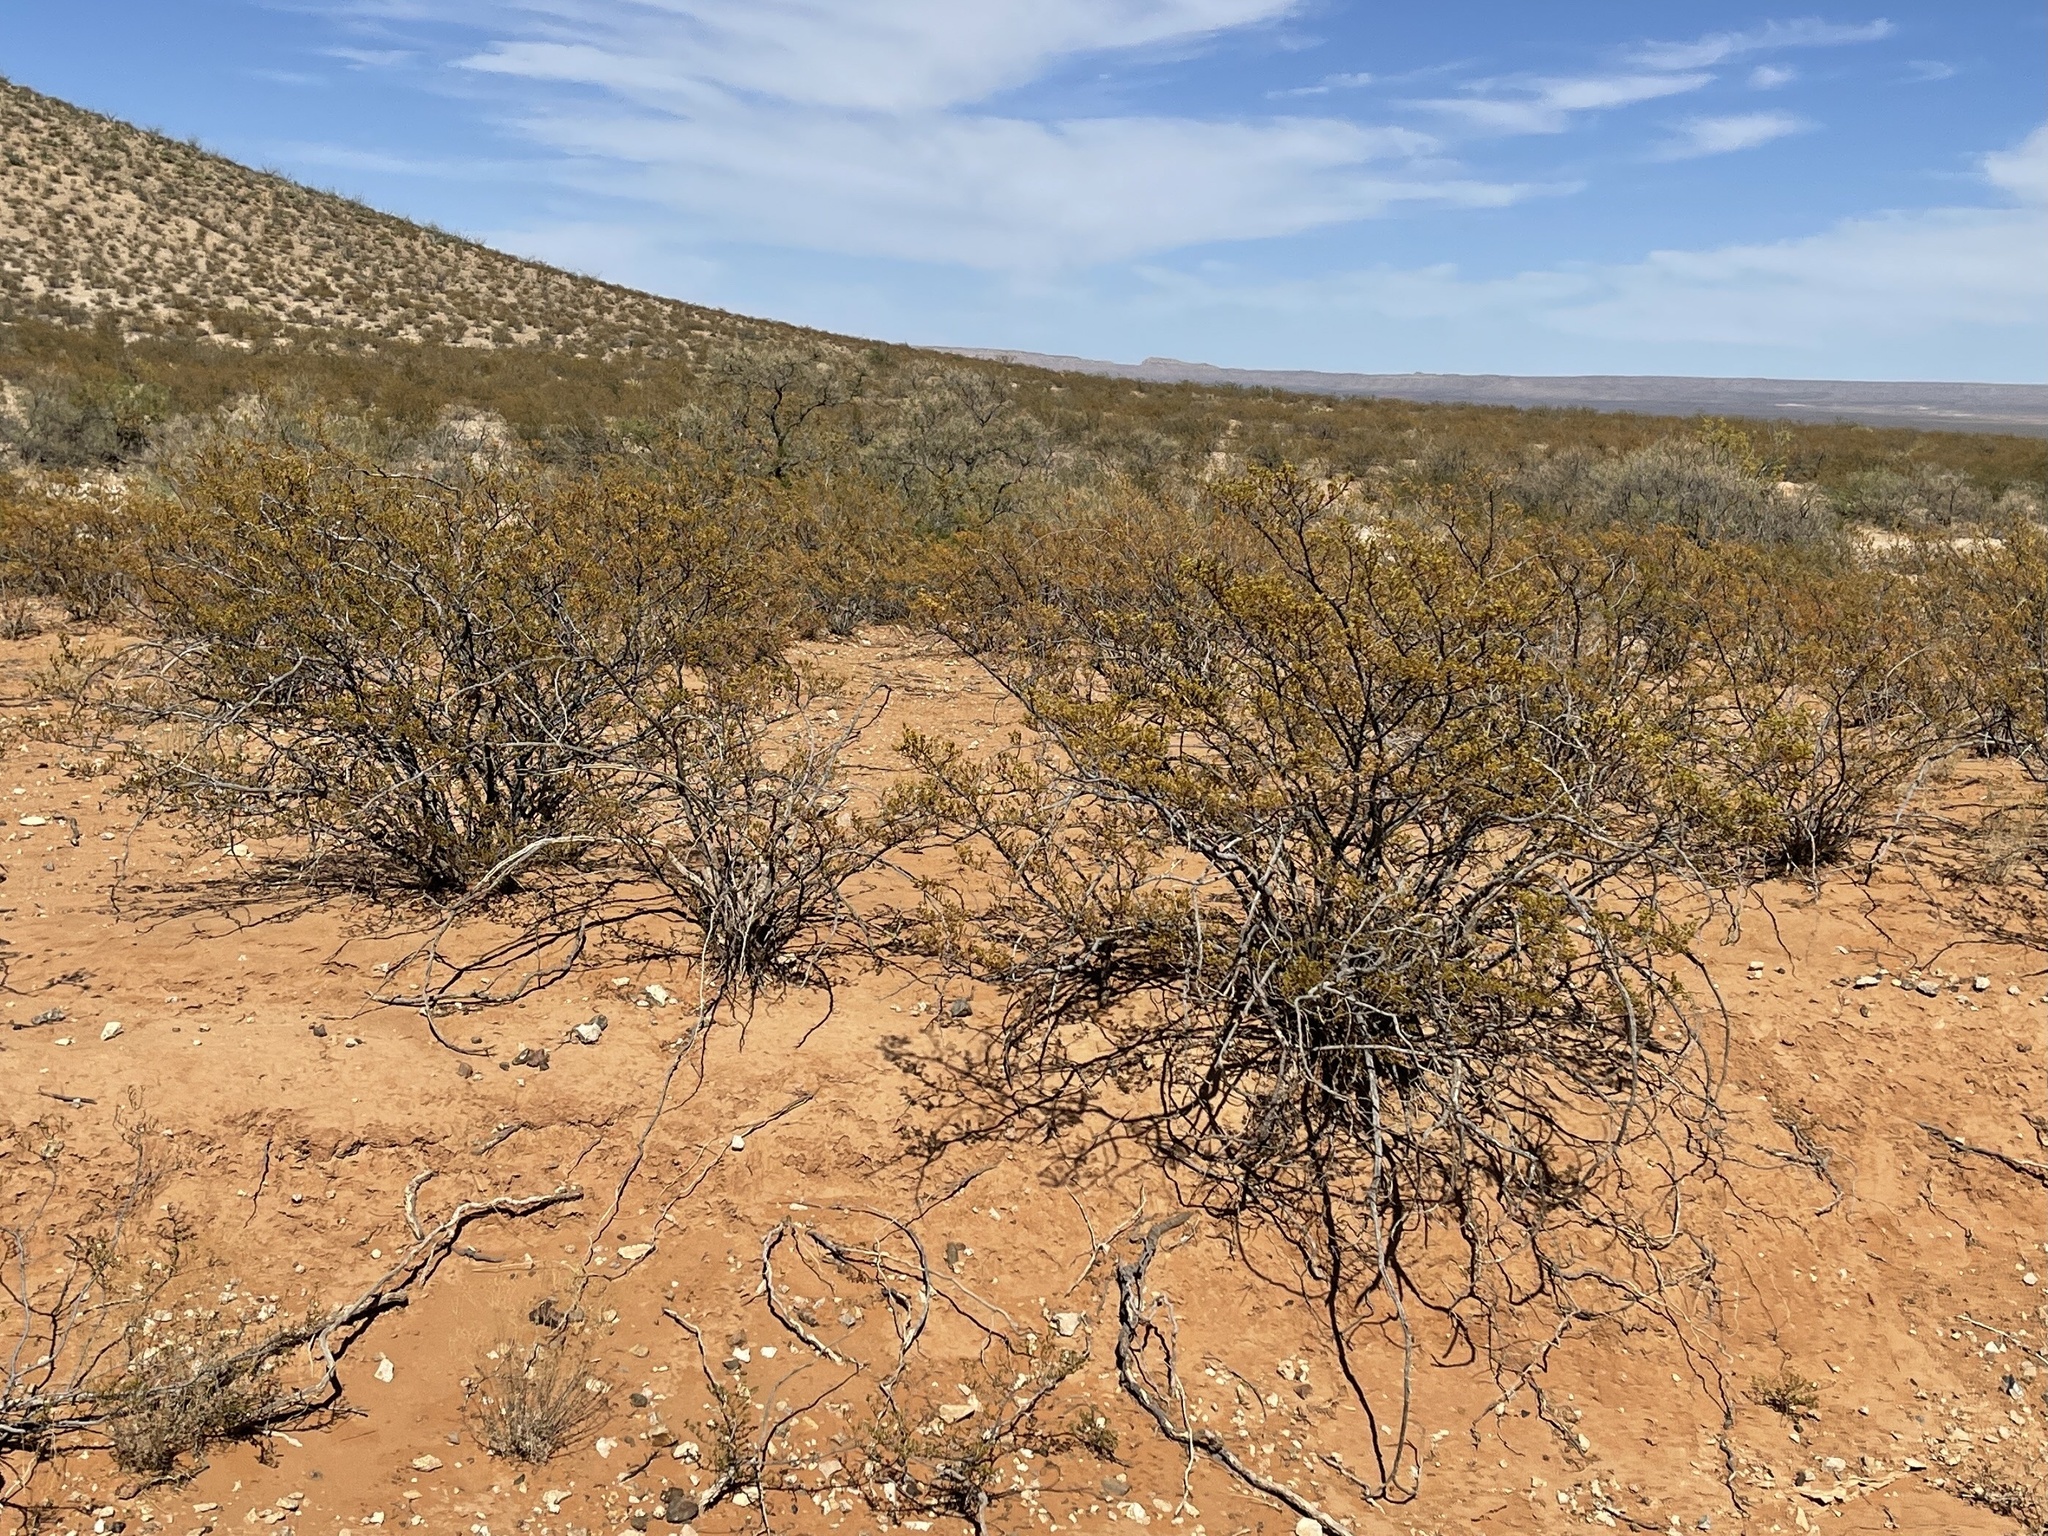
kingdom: Plantae
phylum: Tracheophyta
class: Magnoliopsida
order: Zygophyllales
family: Zygophyllaceae
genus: Larrea
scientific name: Larrea tridentata
